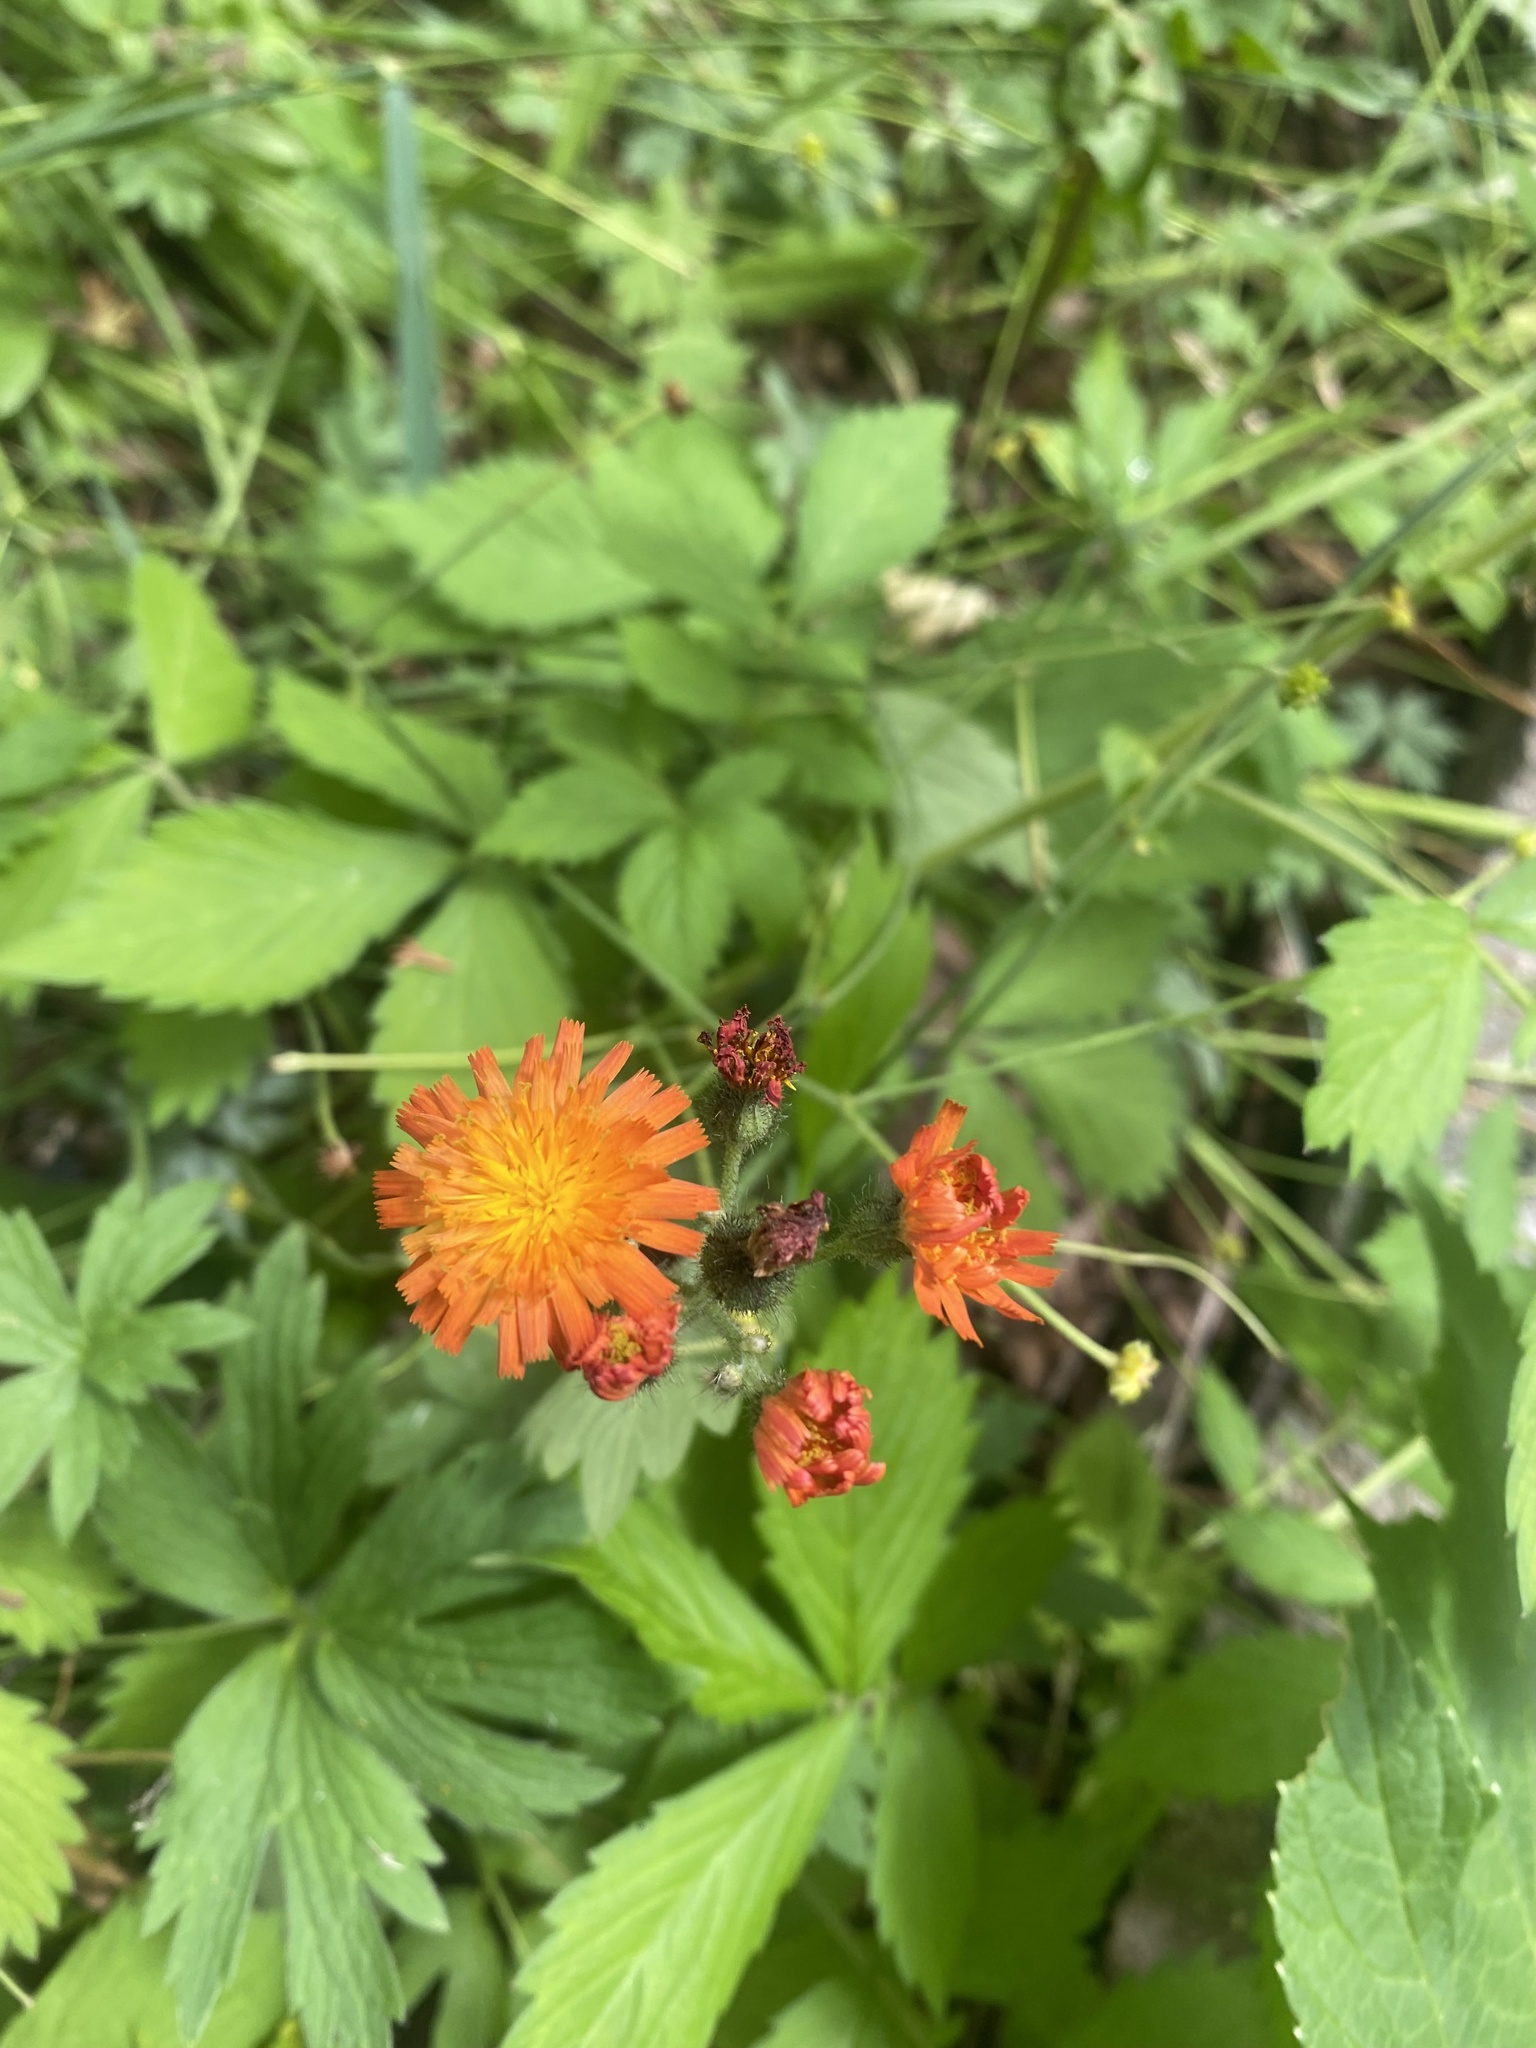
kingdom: Plantae
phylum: Tracheophyta
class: Magnoliopsida
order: Asterales
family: Asteraceae
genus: Pilosella
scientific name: Pilosella aurantiaca
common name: Fox-and-cubs
